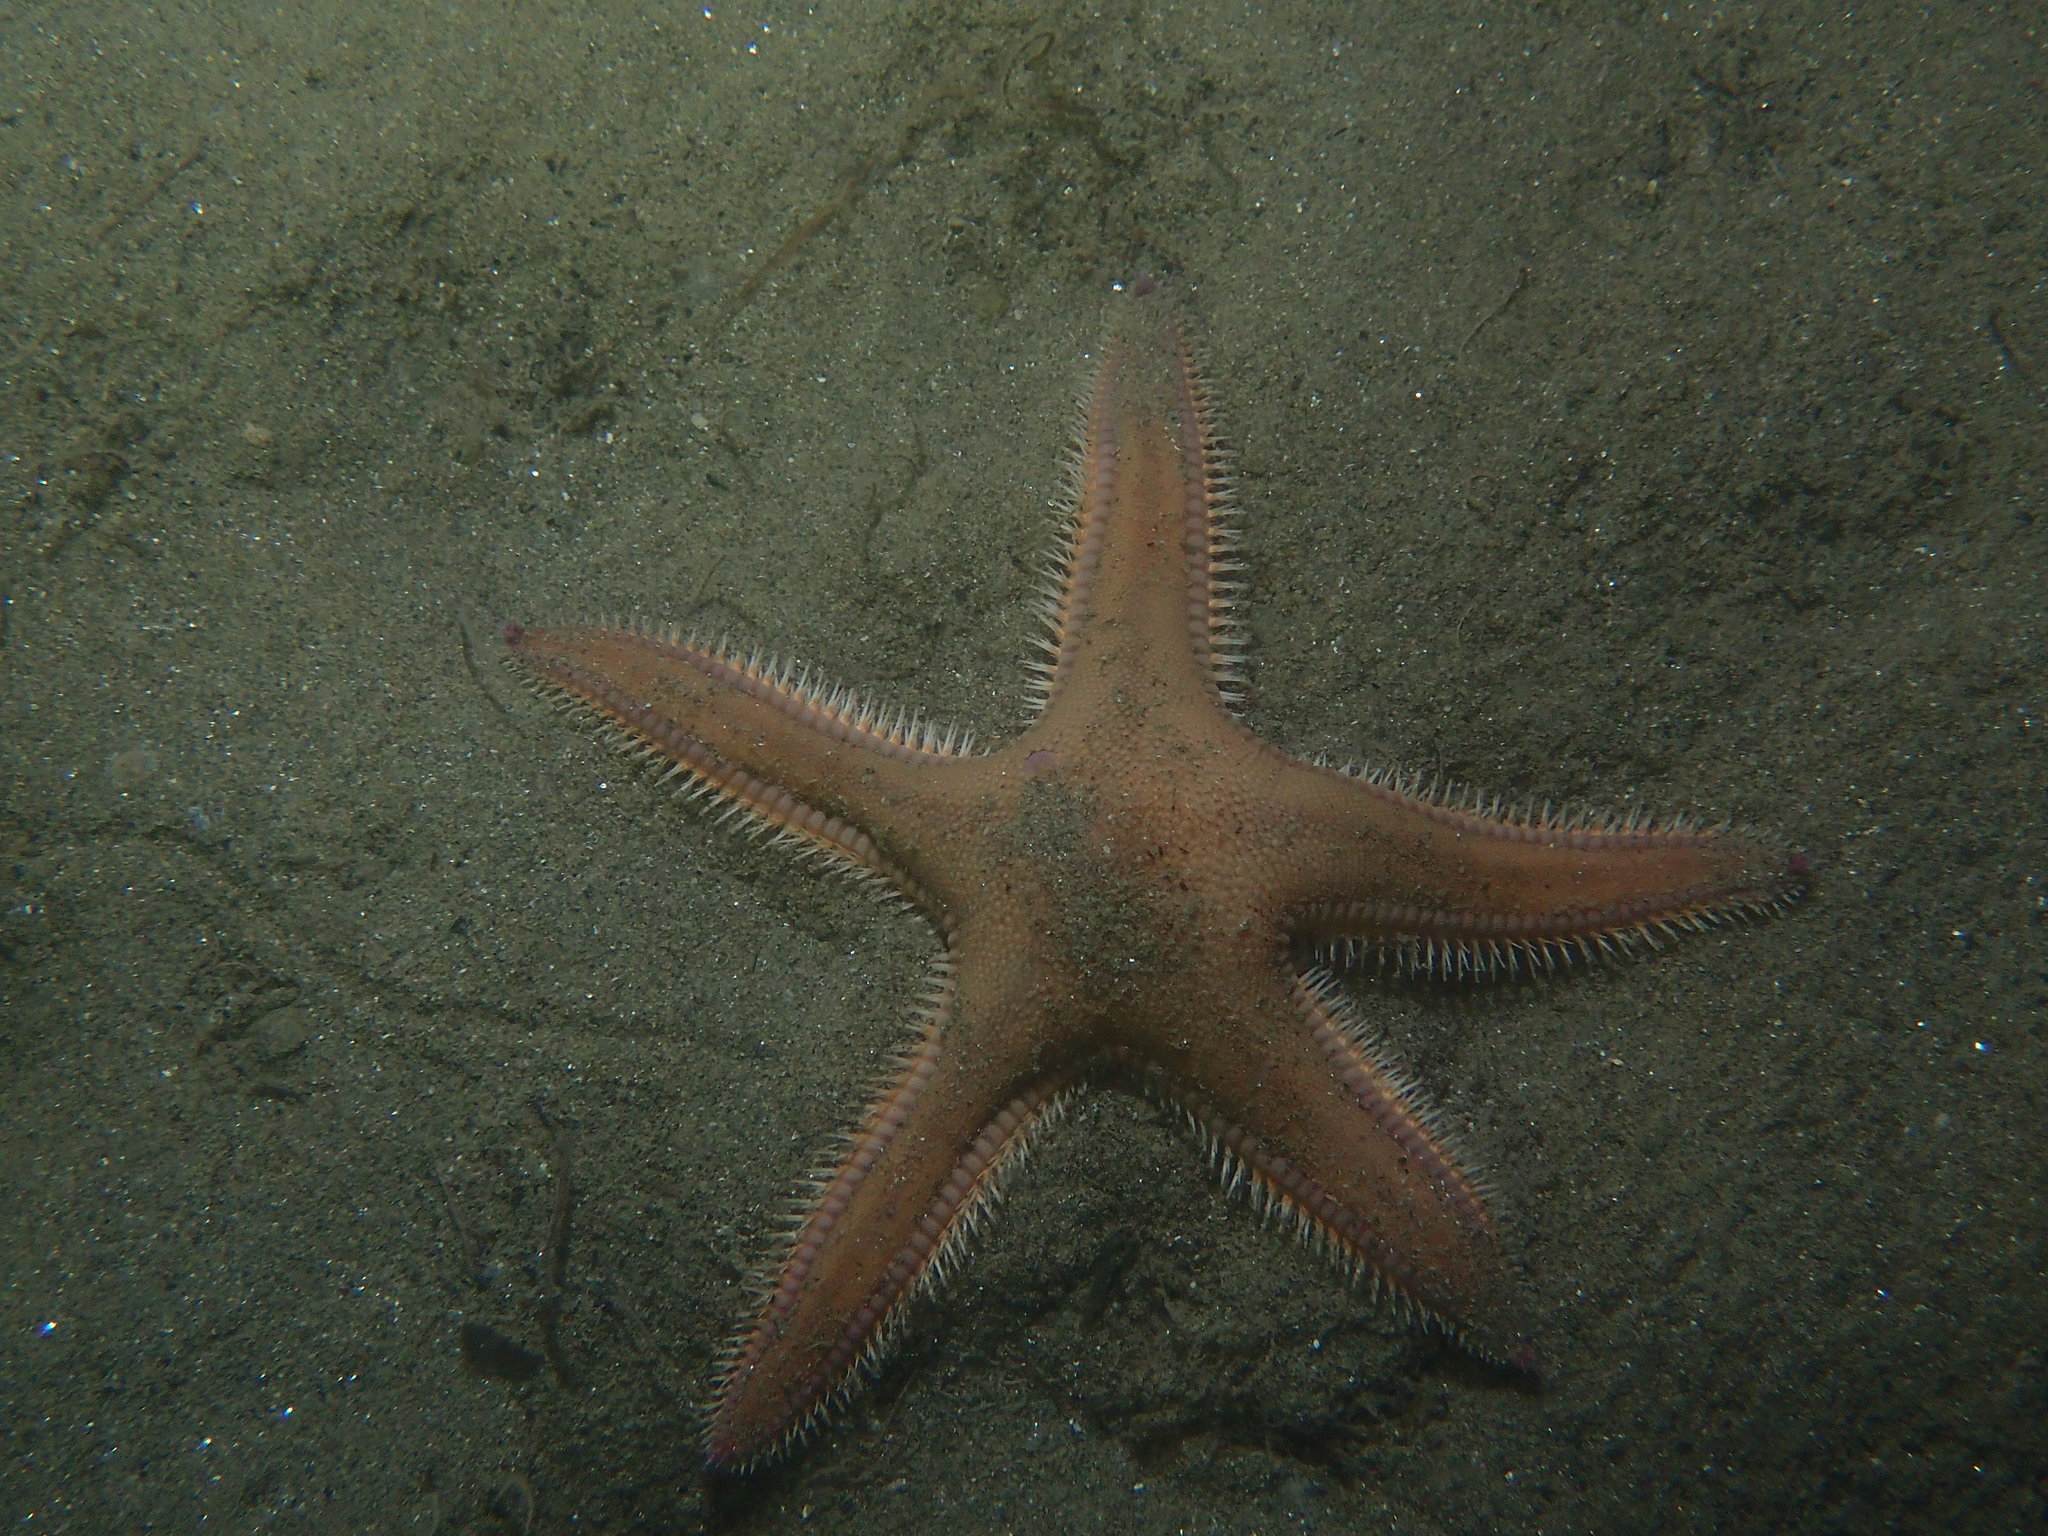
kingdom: Animalia
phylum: Echinodermata
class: Asteroidea
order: Paxillosida
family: Astropectinidae
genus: Astropecten
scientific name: Astropecten irregularis
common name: Sand star
